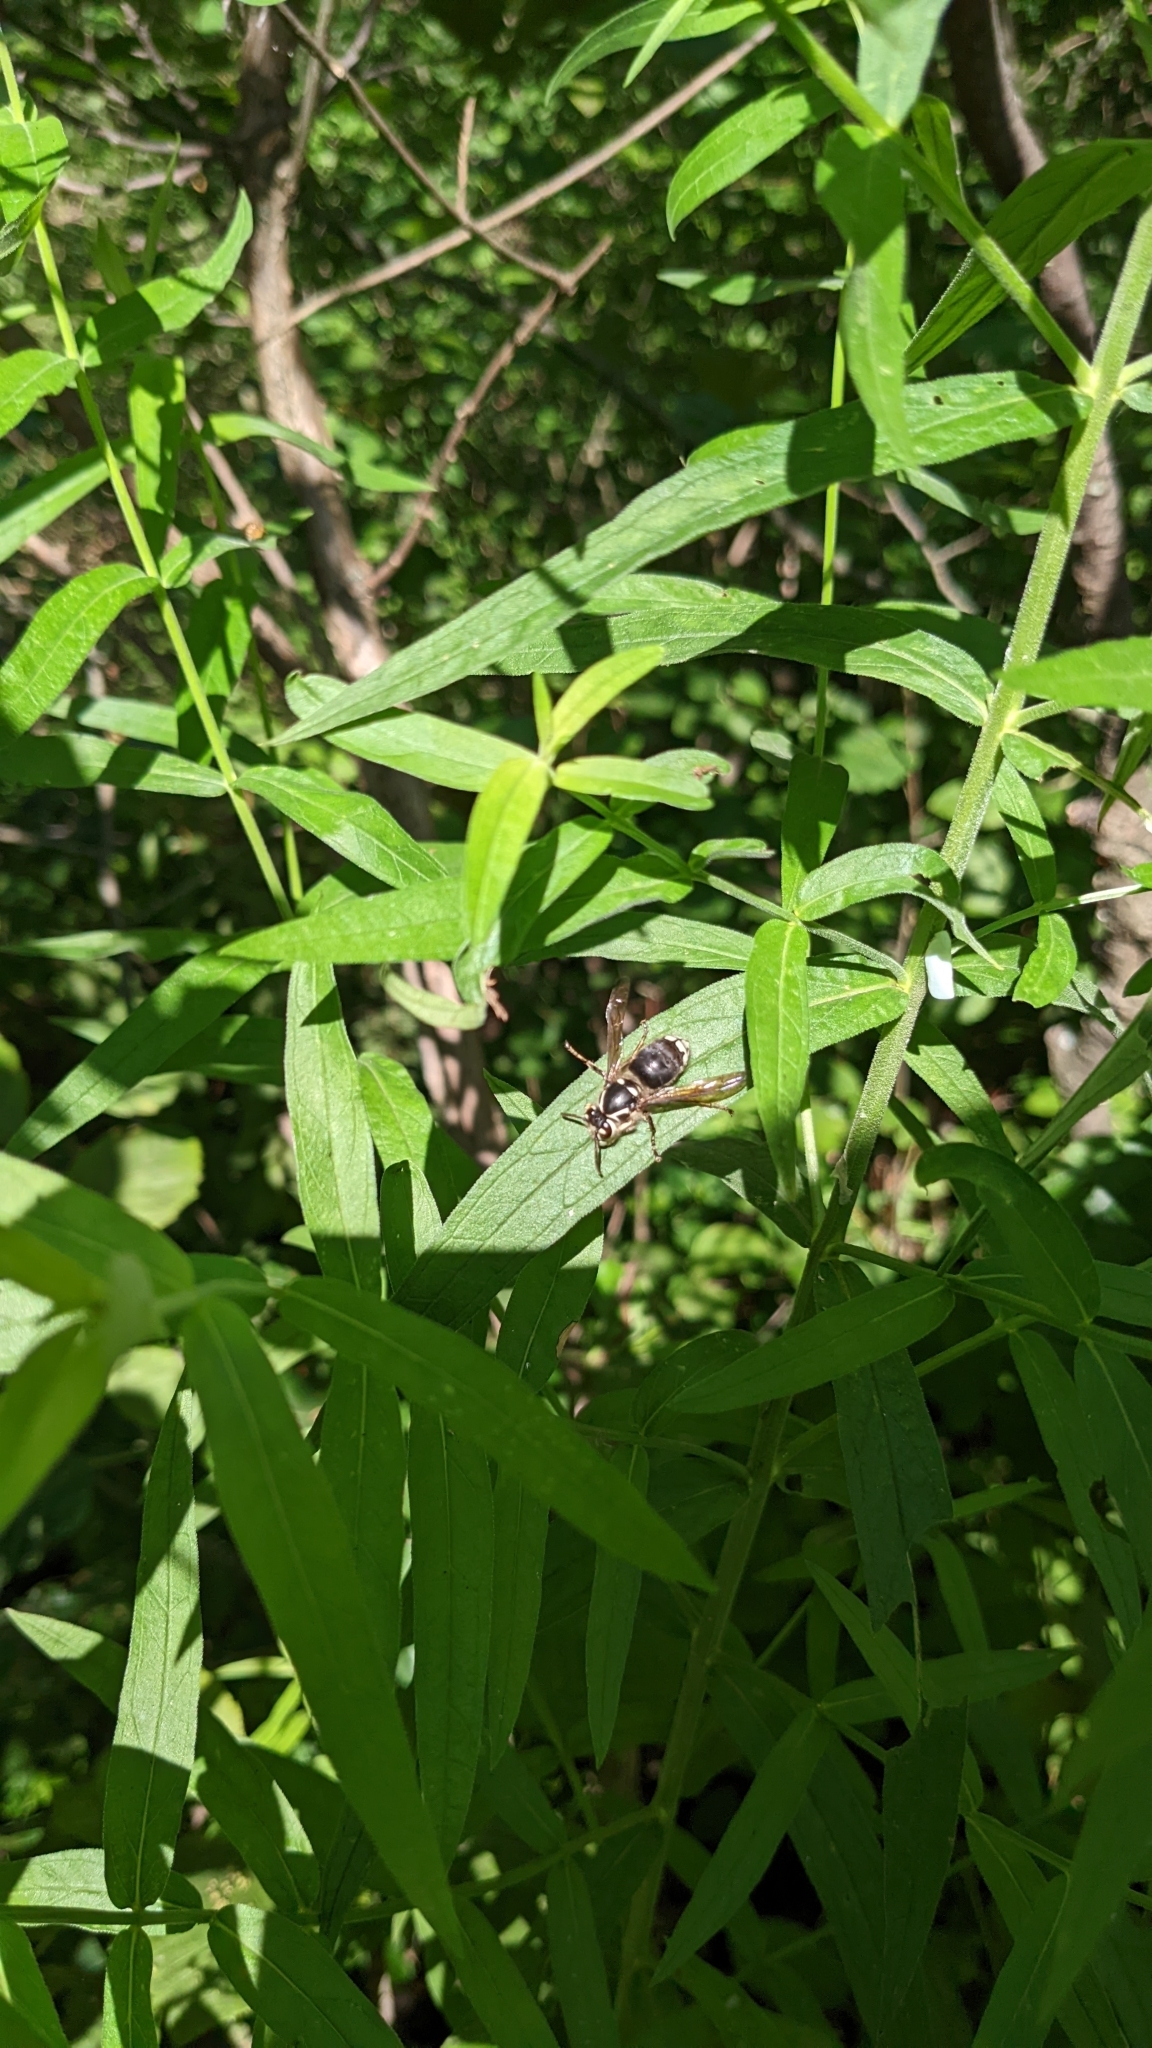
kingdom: Animalia
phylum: Arthropoda
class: Insecta
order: Hymenoptera
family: Vespidae
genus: Dolichovespula
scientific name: Dolichovespula maculata
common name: Bald-faced hornet
